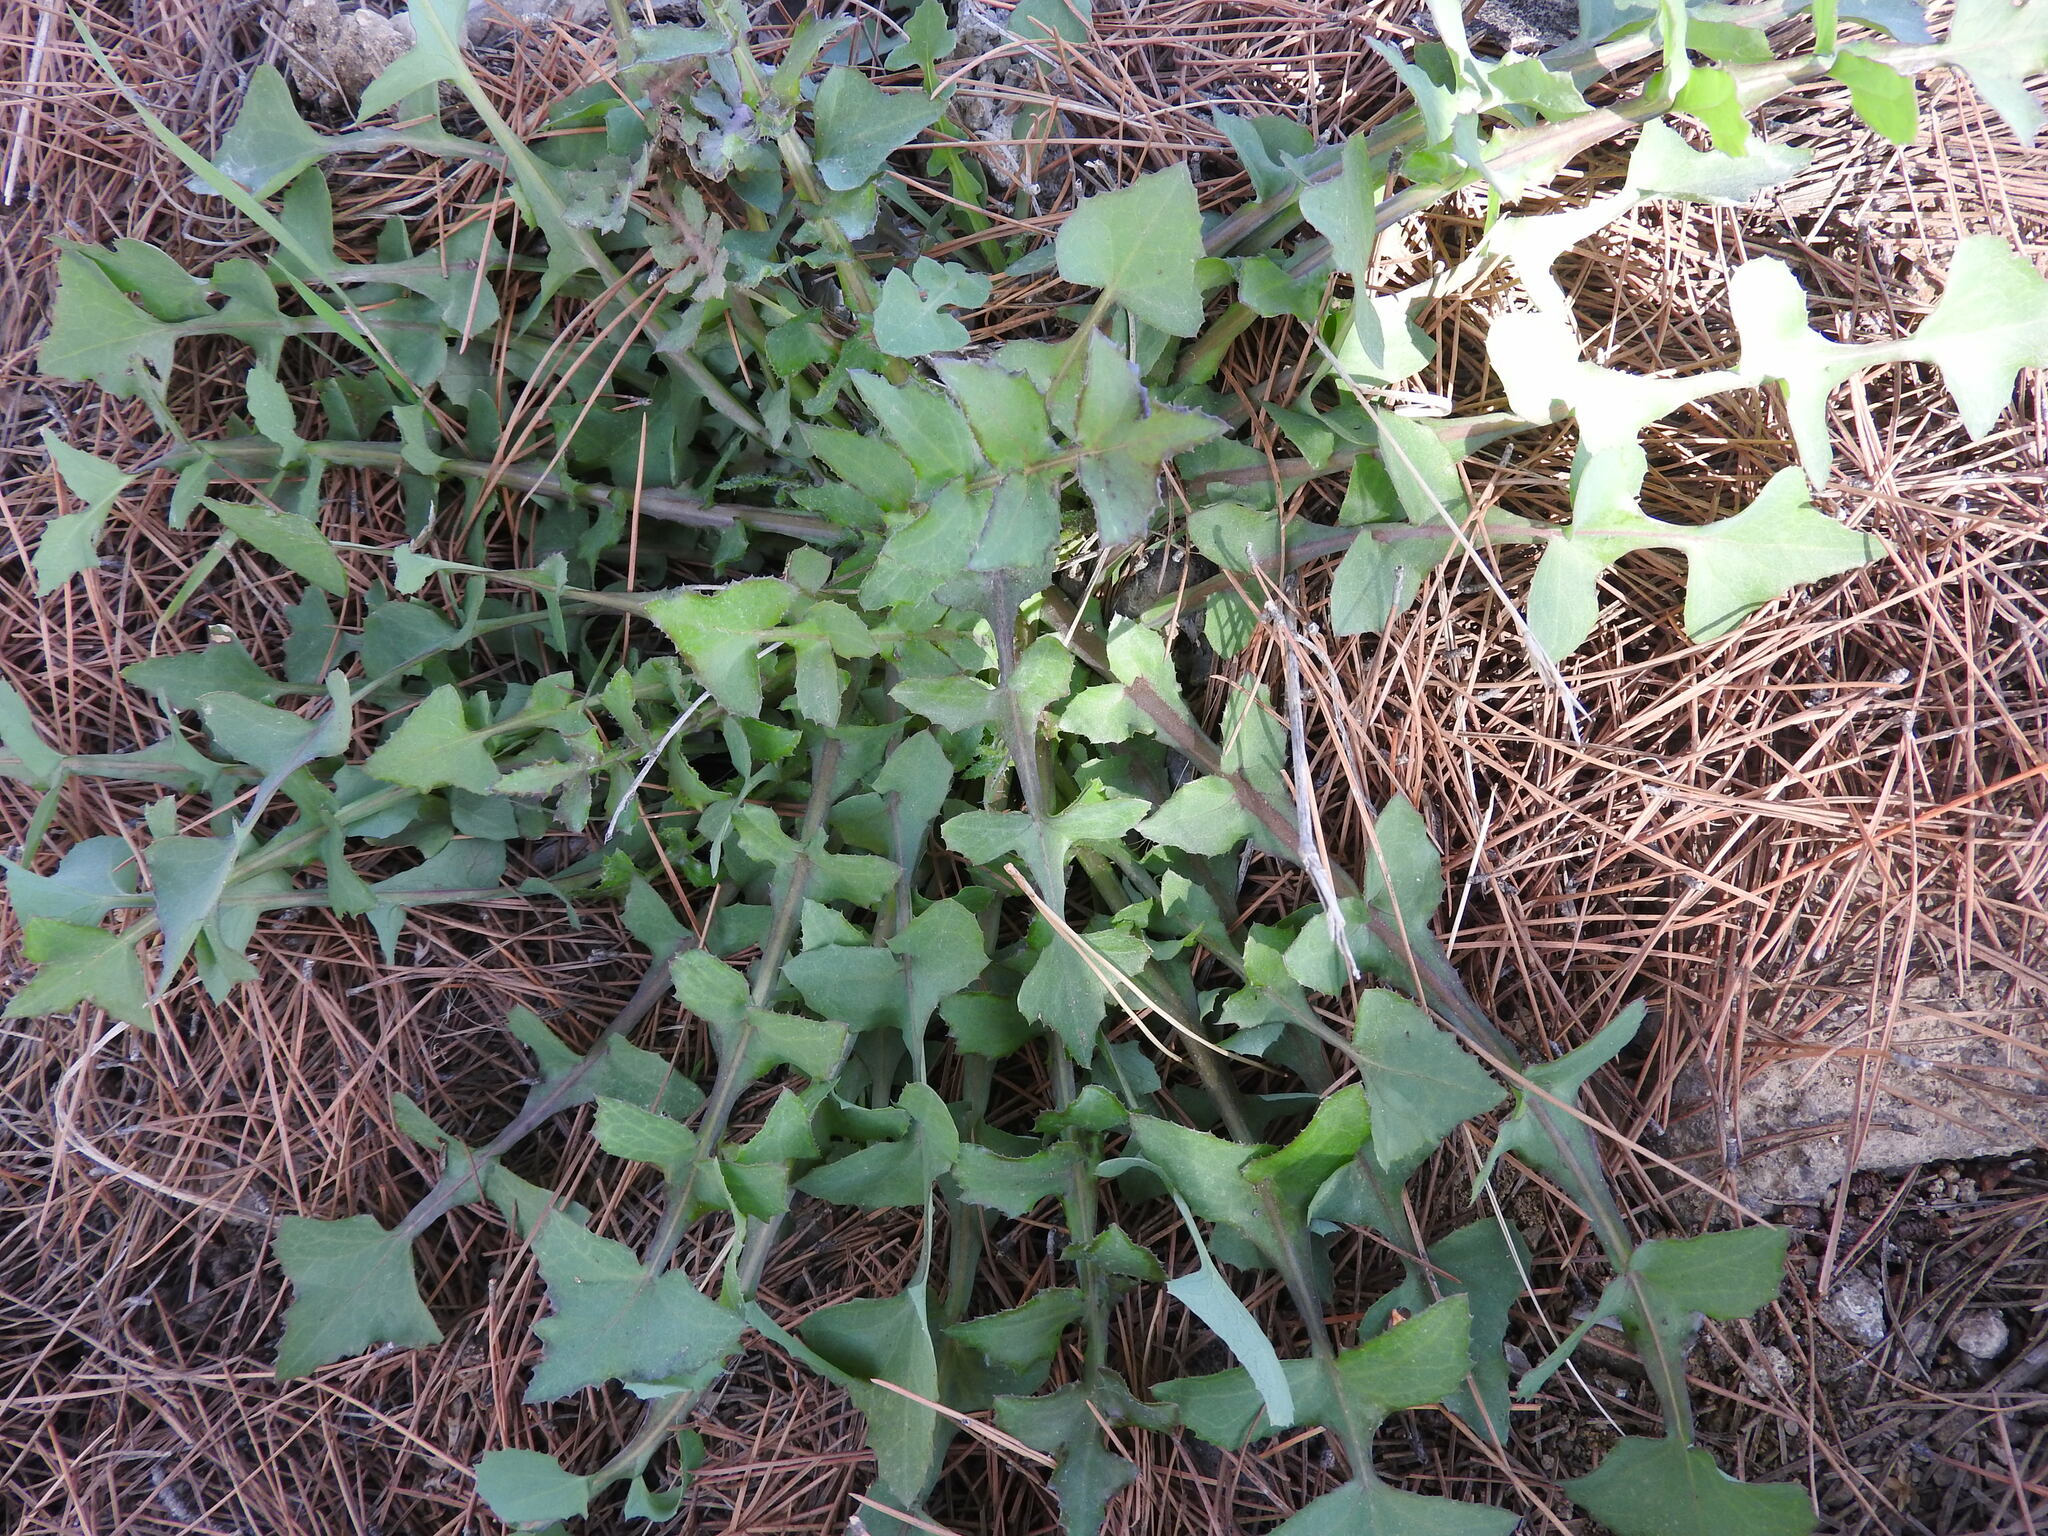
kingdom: Plantae
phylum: Tracheophyta
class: Magnoliopsida
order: Asterales
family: Asteraceae
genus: Sonchus
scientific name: Sonchus tenerrimus
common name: Clammy sowthistle
